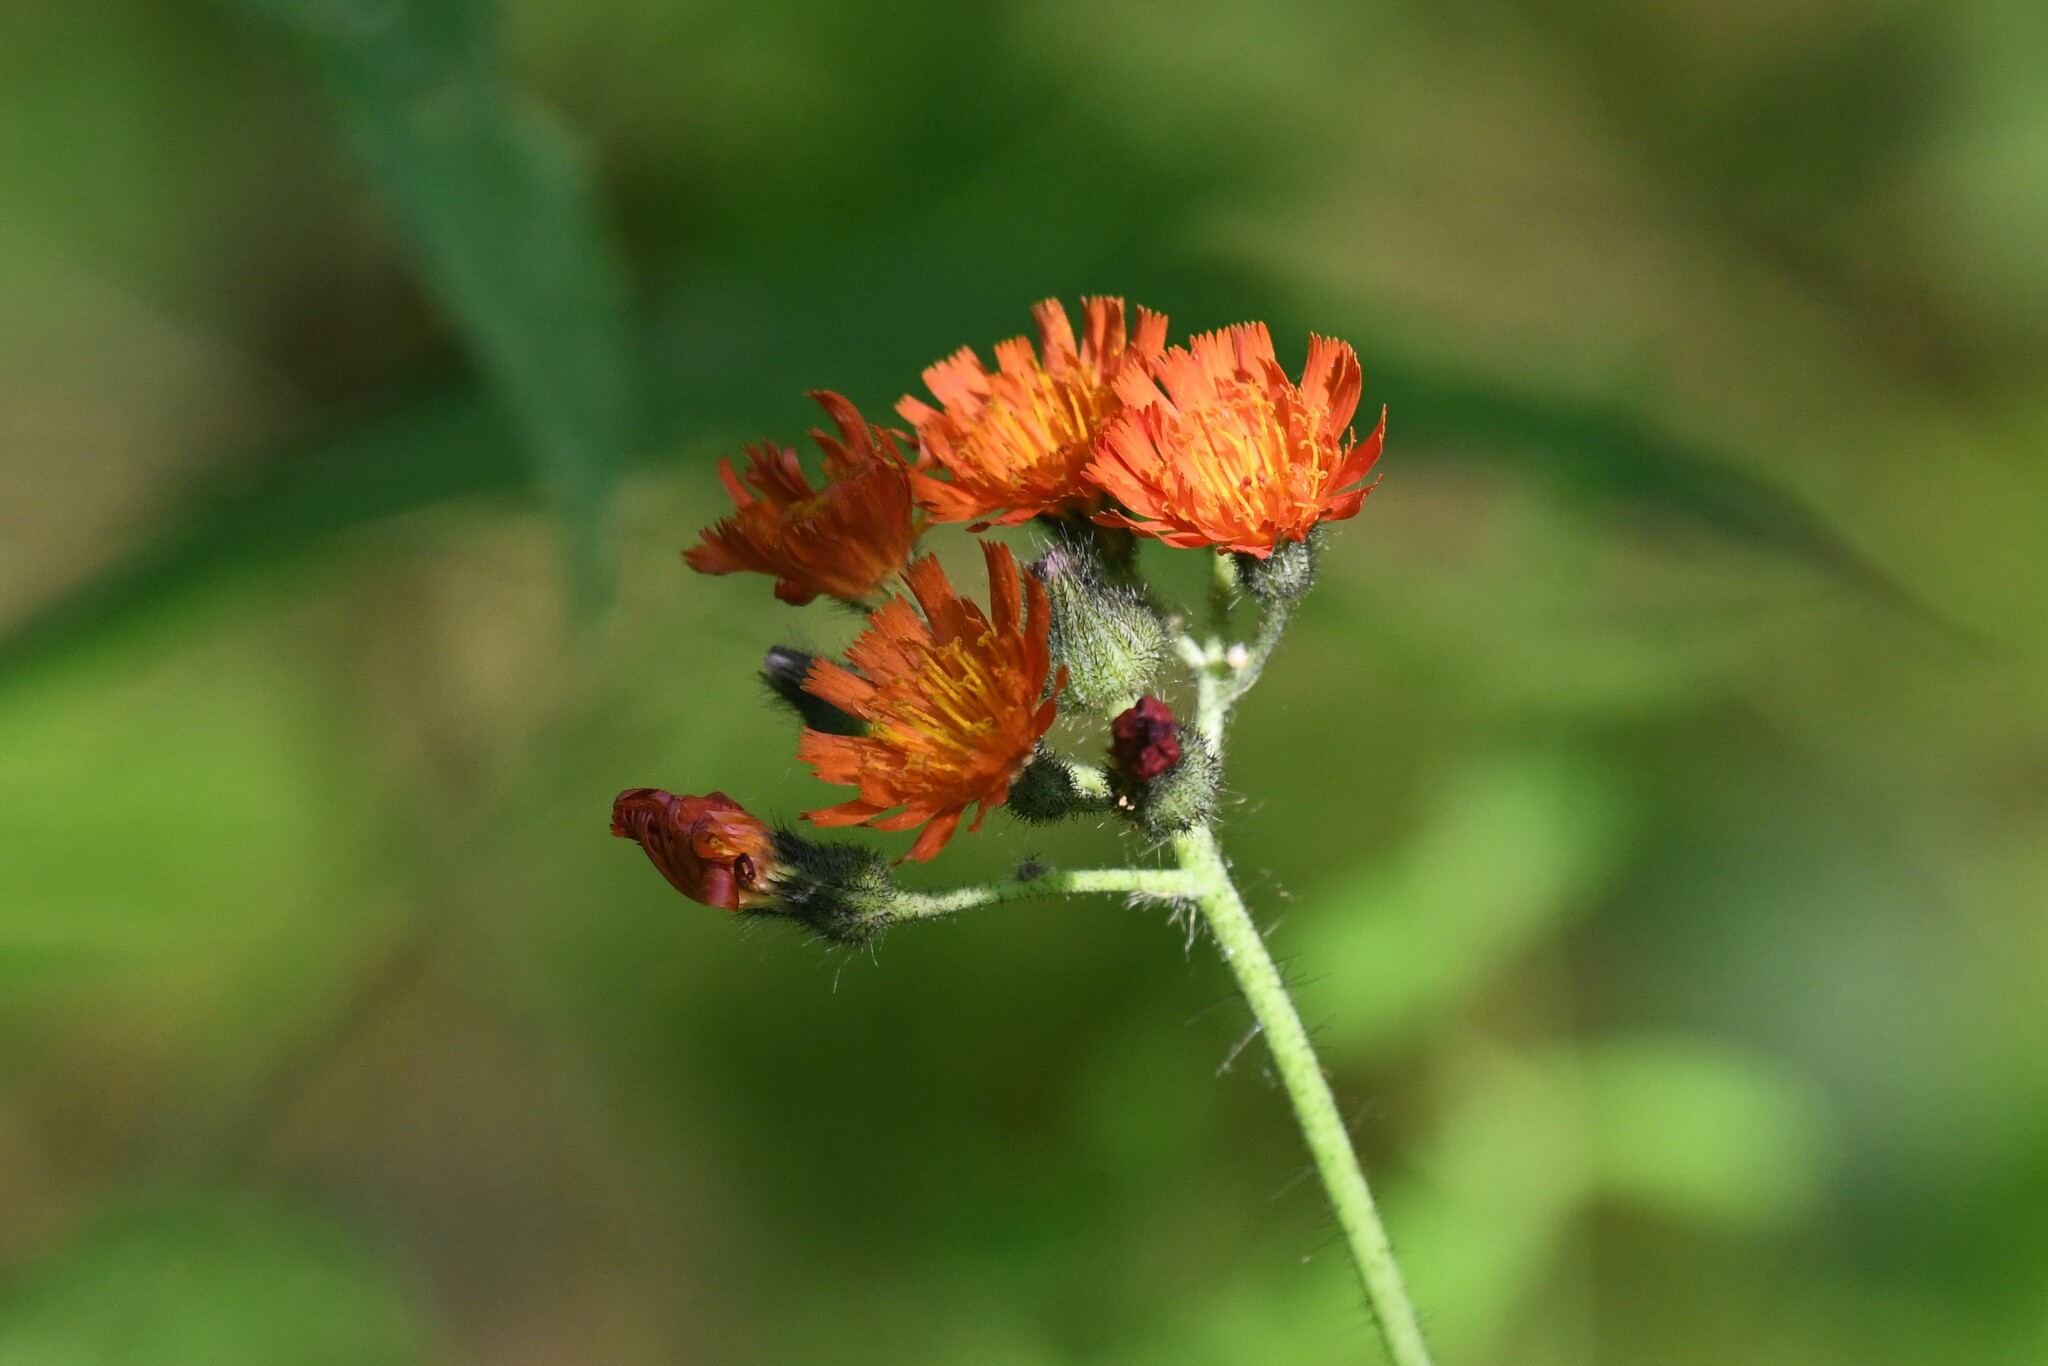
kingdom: Plantae
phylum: Tracheophyta
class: Magnoliopsida
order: Asterales
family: Asteraceae
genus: Pilosella
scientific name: Pilosella aurantiaca
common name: Fox-and-cubs
